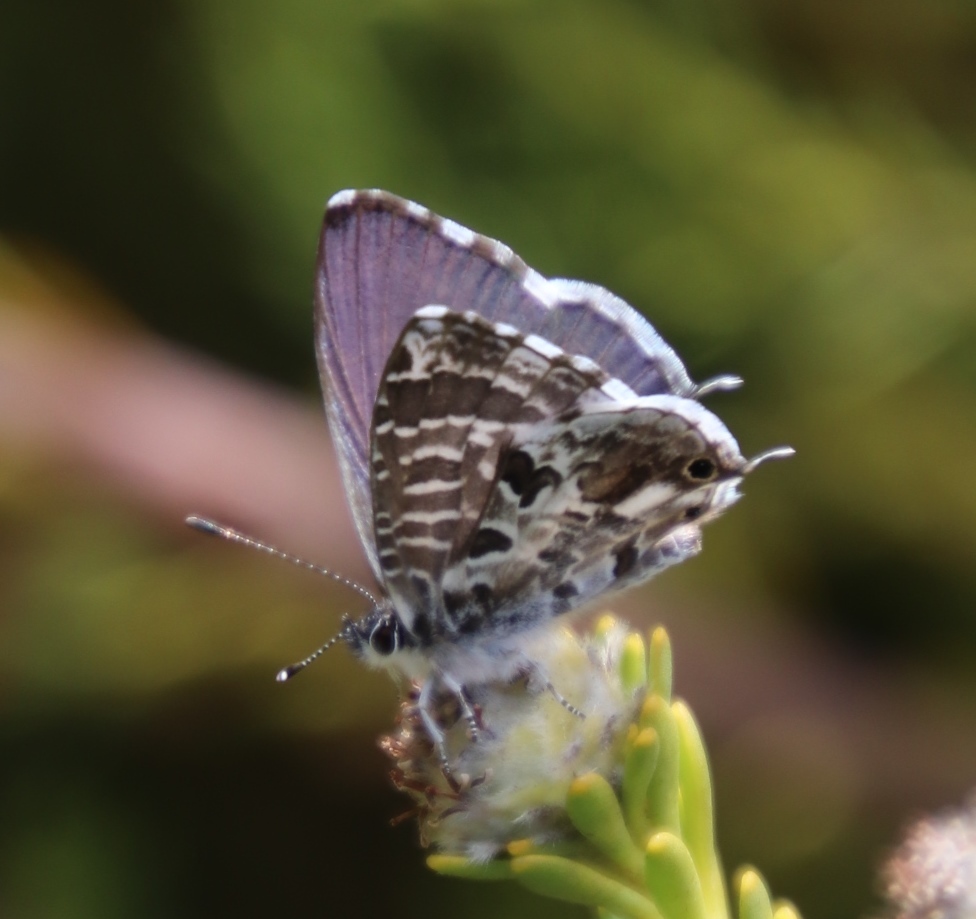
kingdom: Animalia
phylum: Arthropoda
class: Insecta
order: Lepidoptera
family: Lycaenidae
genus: Cacyreus
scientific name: Cacyreus lingeus
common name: Bush bronze
